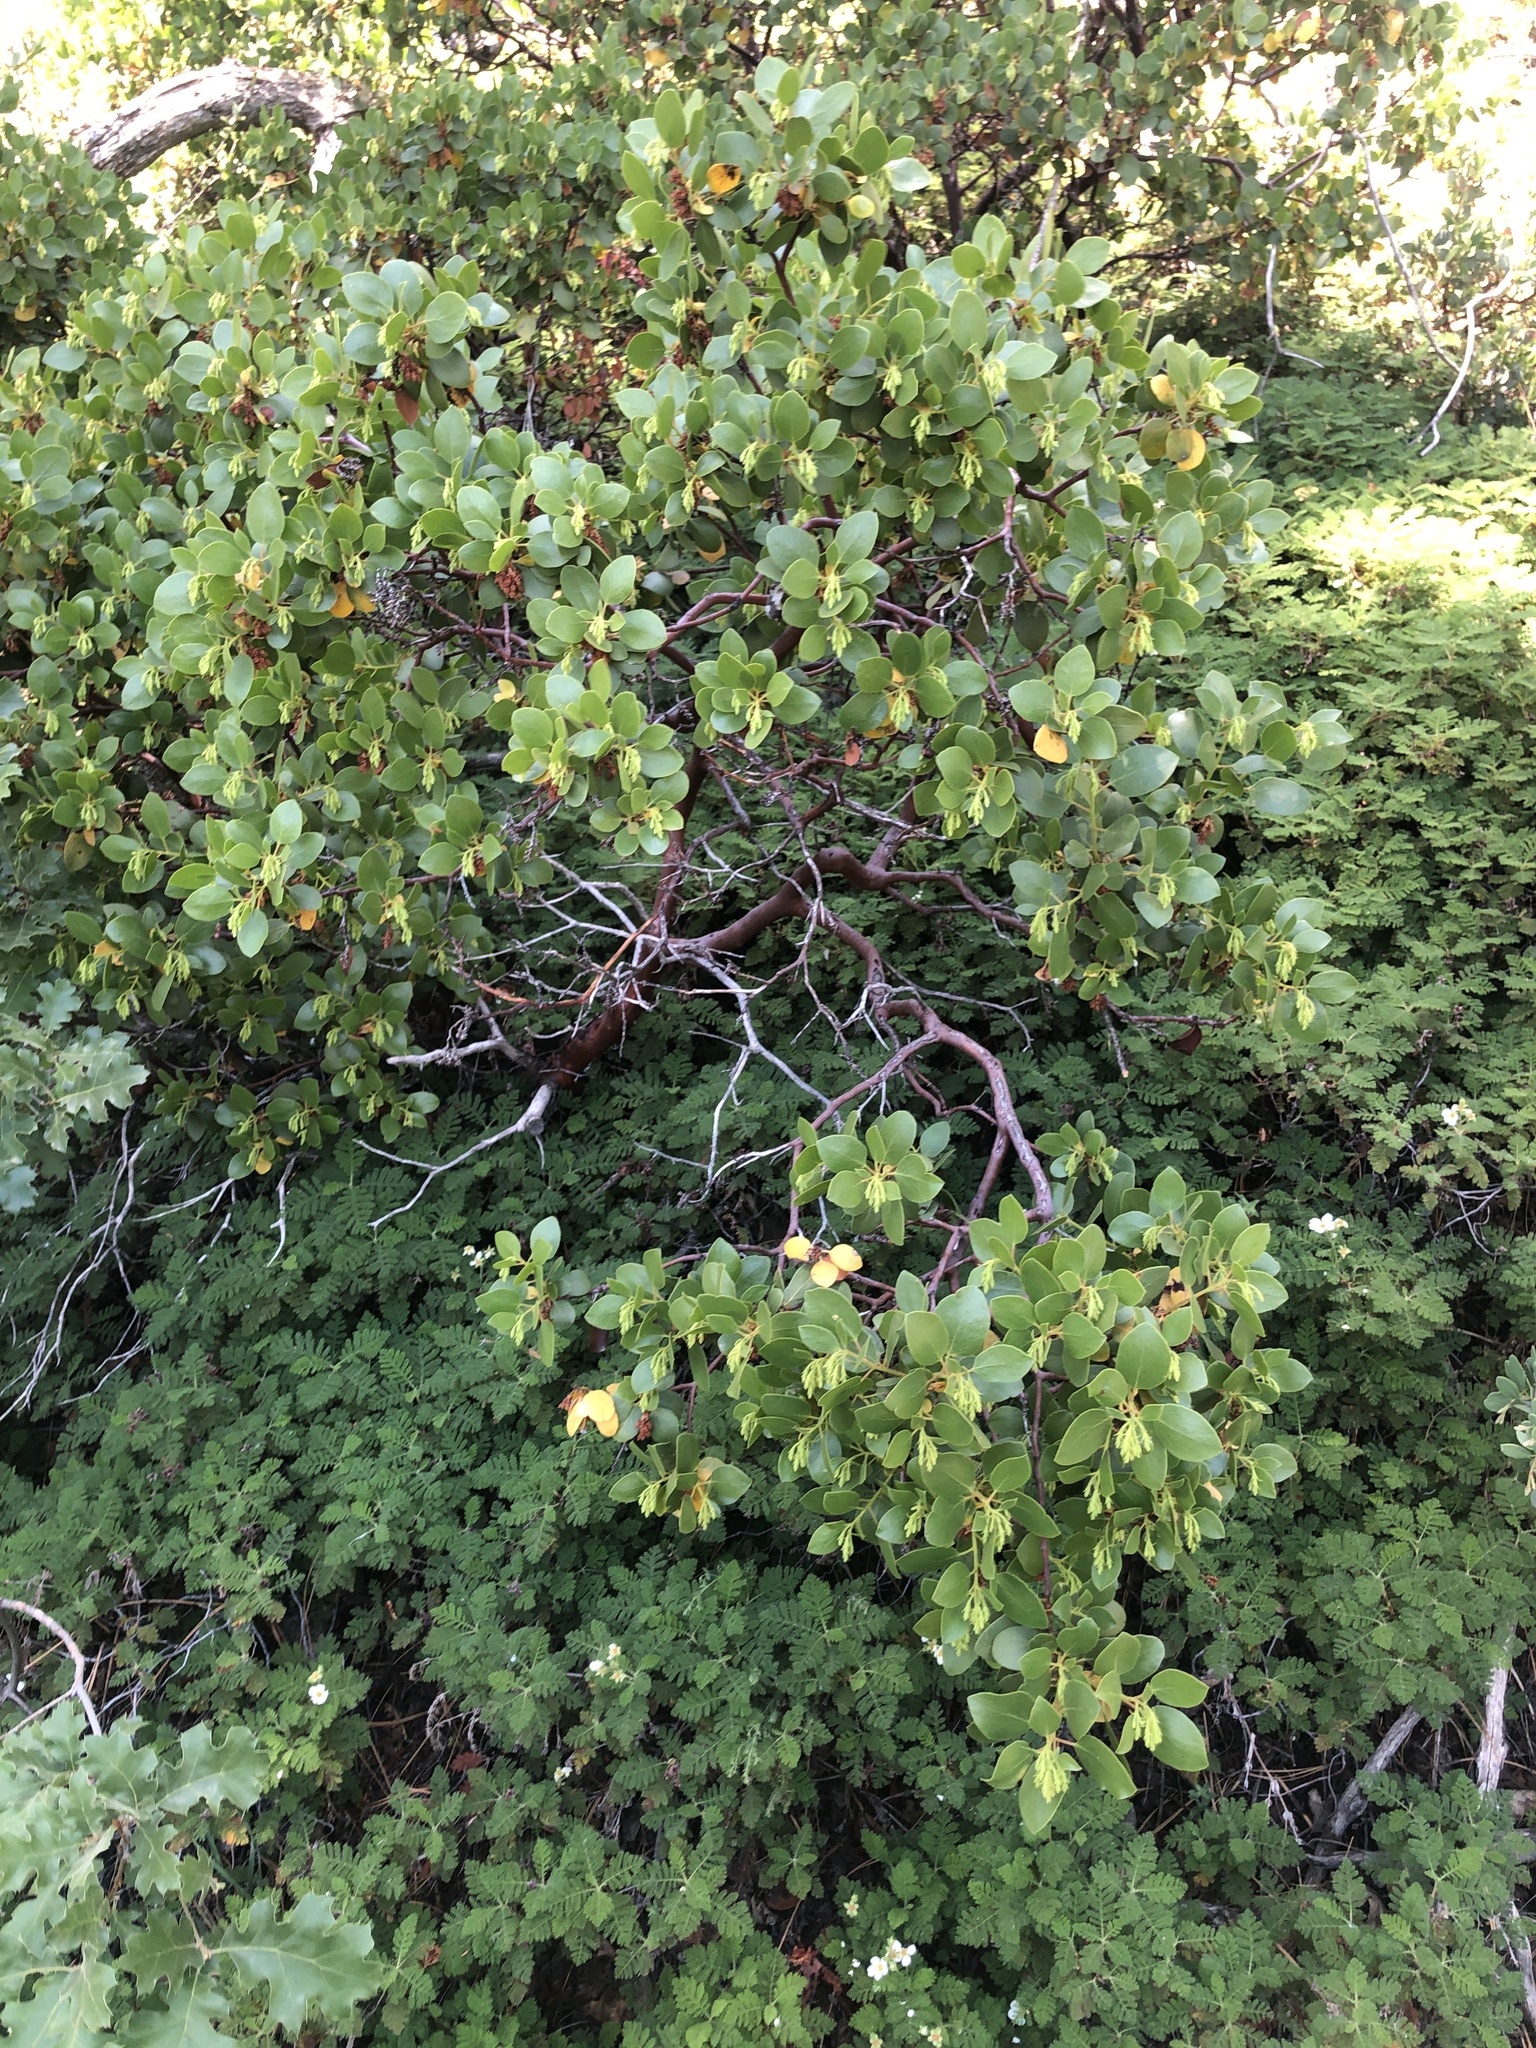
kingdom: Plantae
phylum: Tracheophyta
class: Magnoliopsida
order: Ericales
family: Ericaceae
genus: Arctostaphylos
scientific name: Arctostaphylos patula
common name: Green-leaf manzanita
